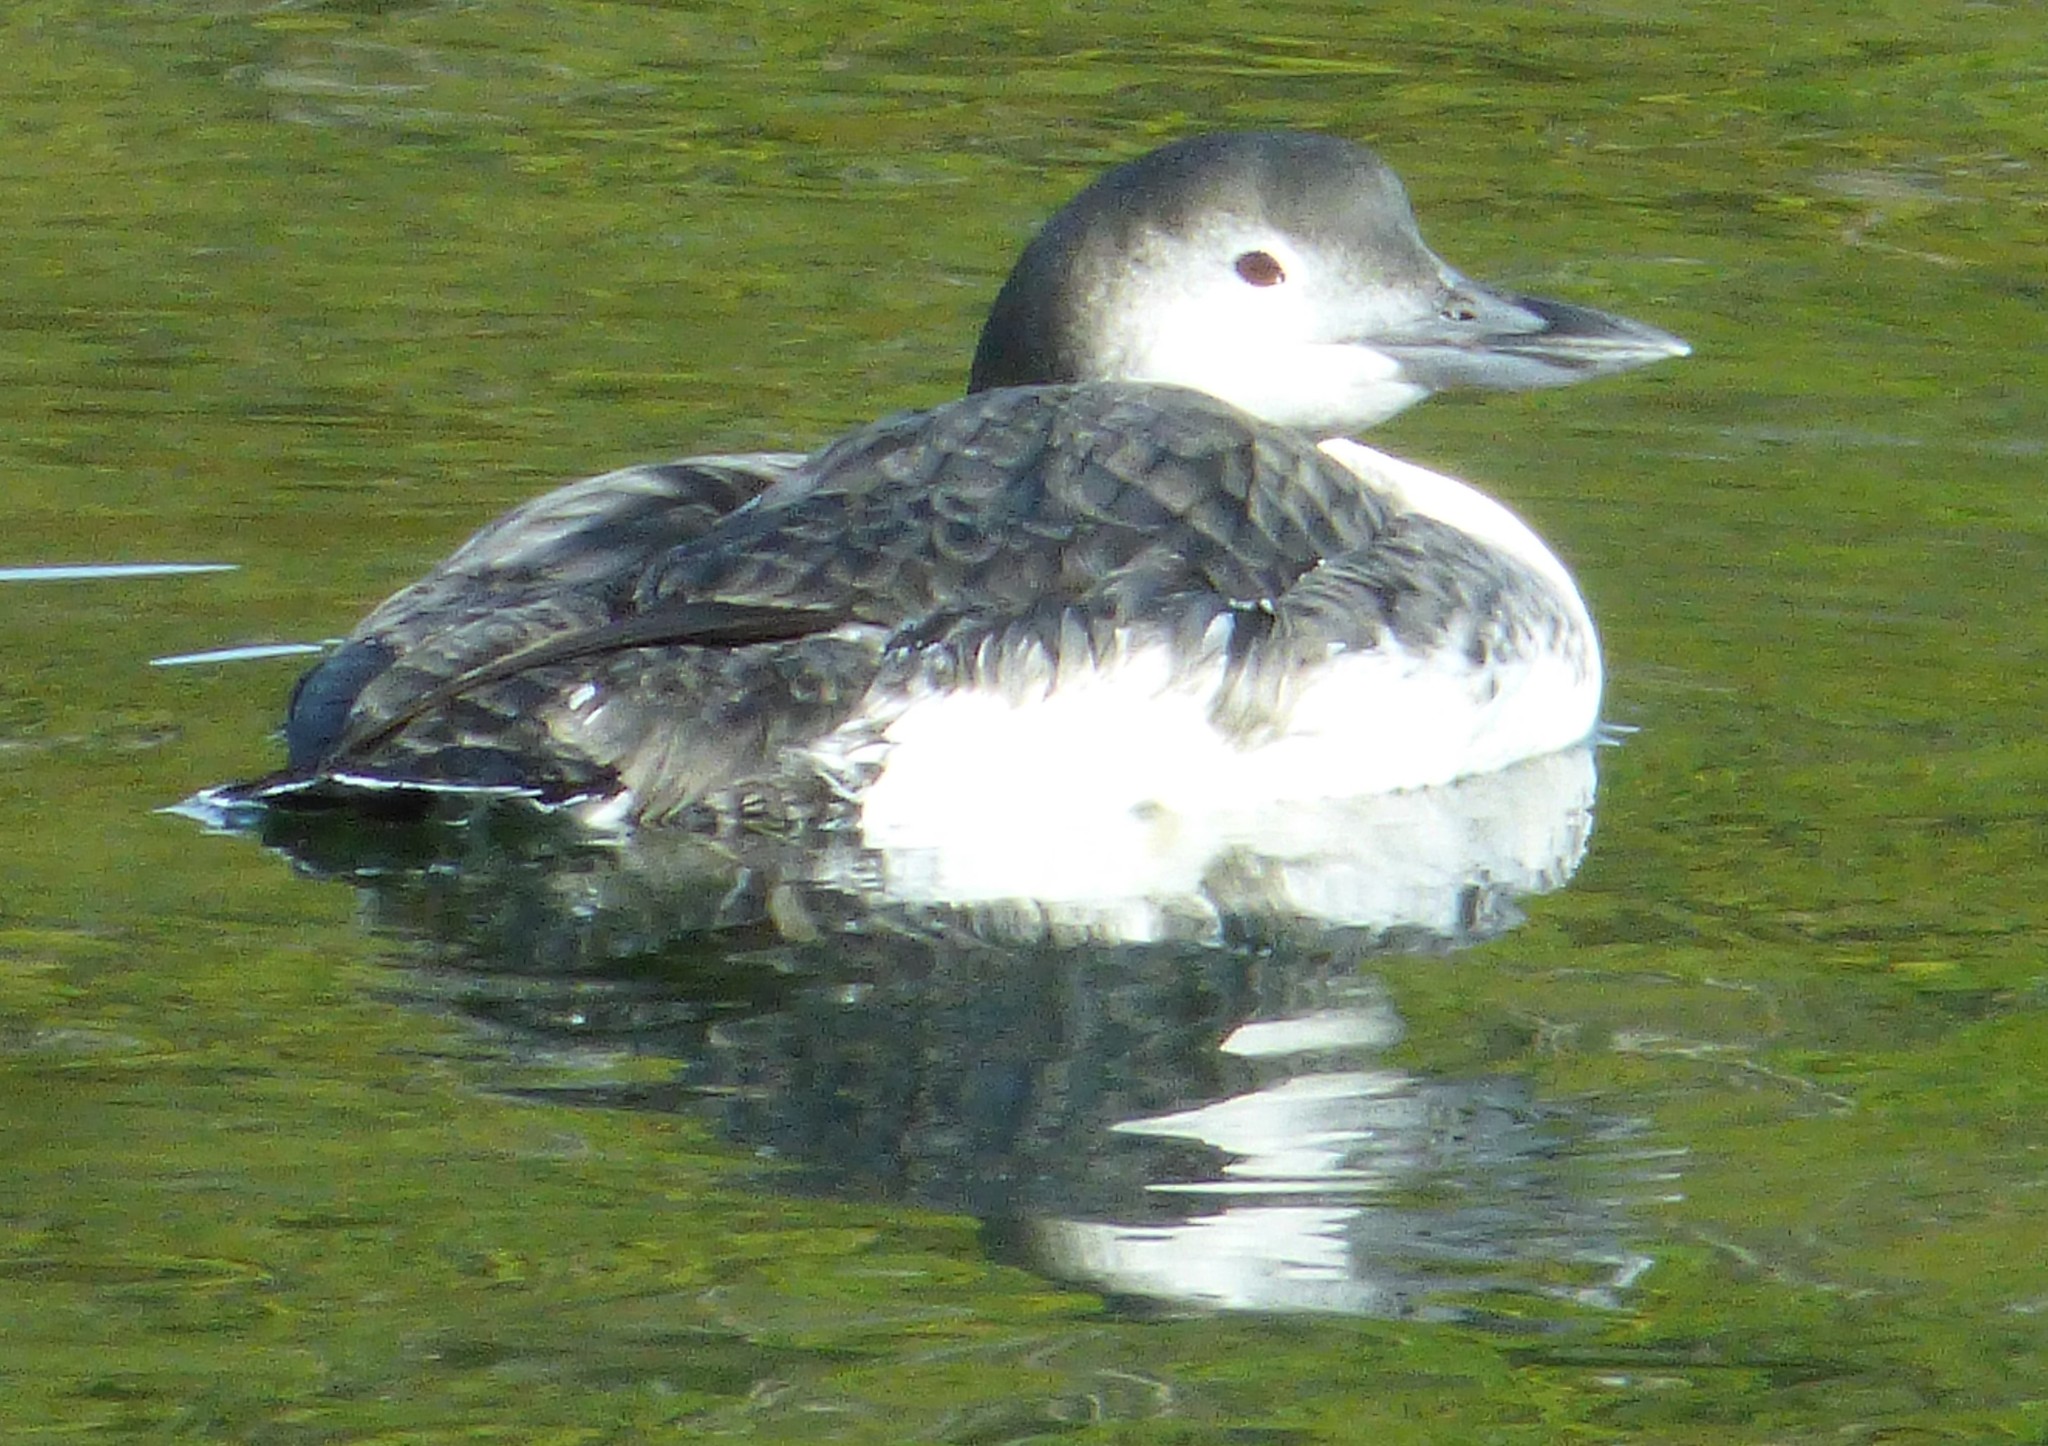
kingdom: Animalia
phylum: Chordata
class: Aves
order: Gaviiformes
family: Gaviidae
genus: Gavia
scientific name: Gavia immer
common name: Common loon
